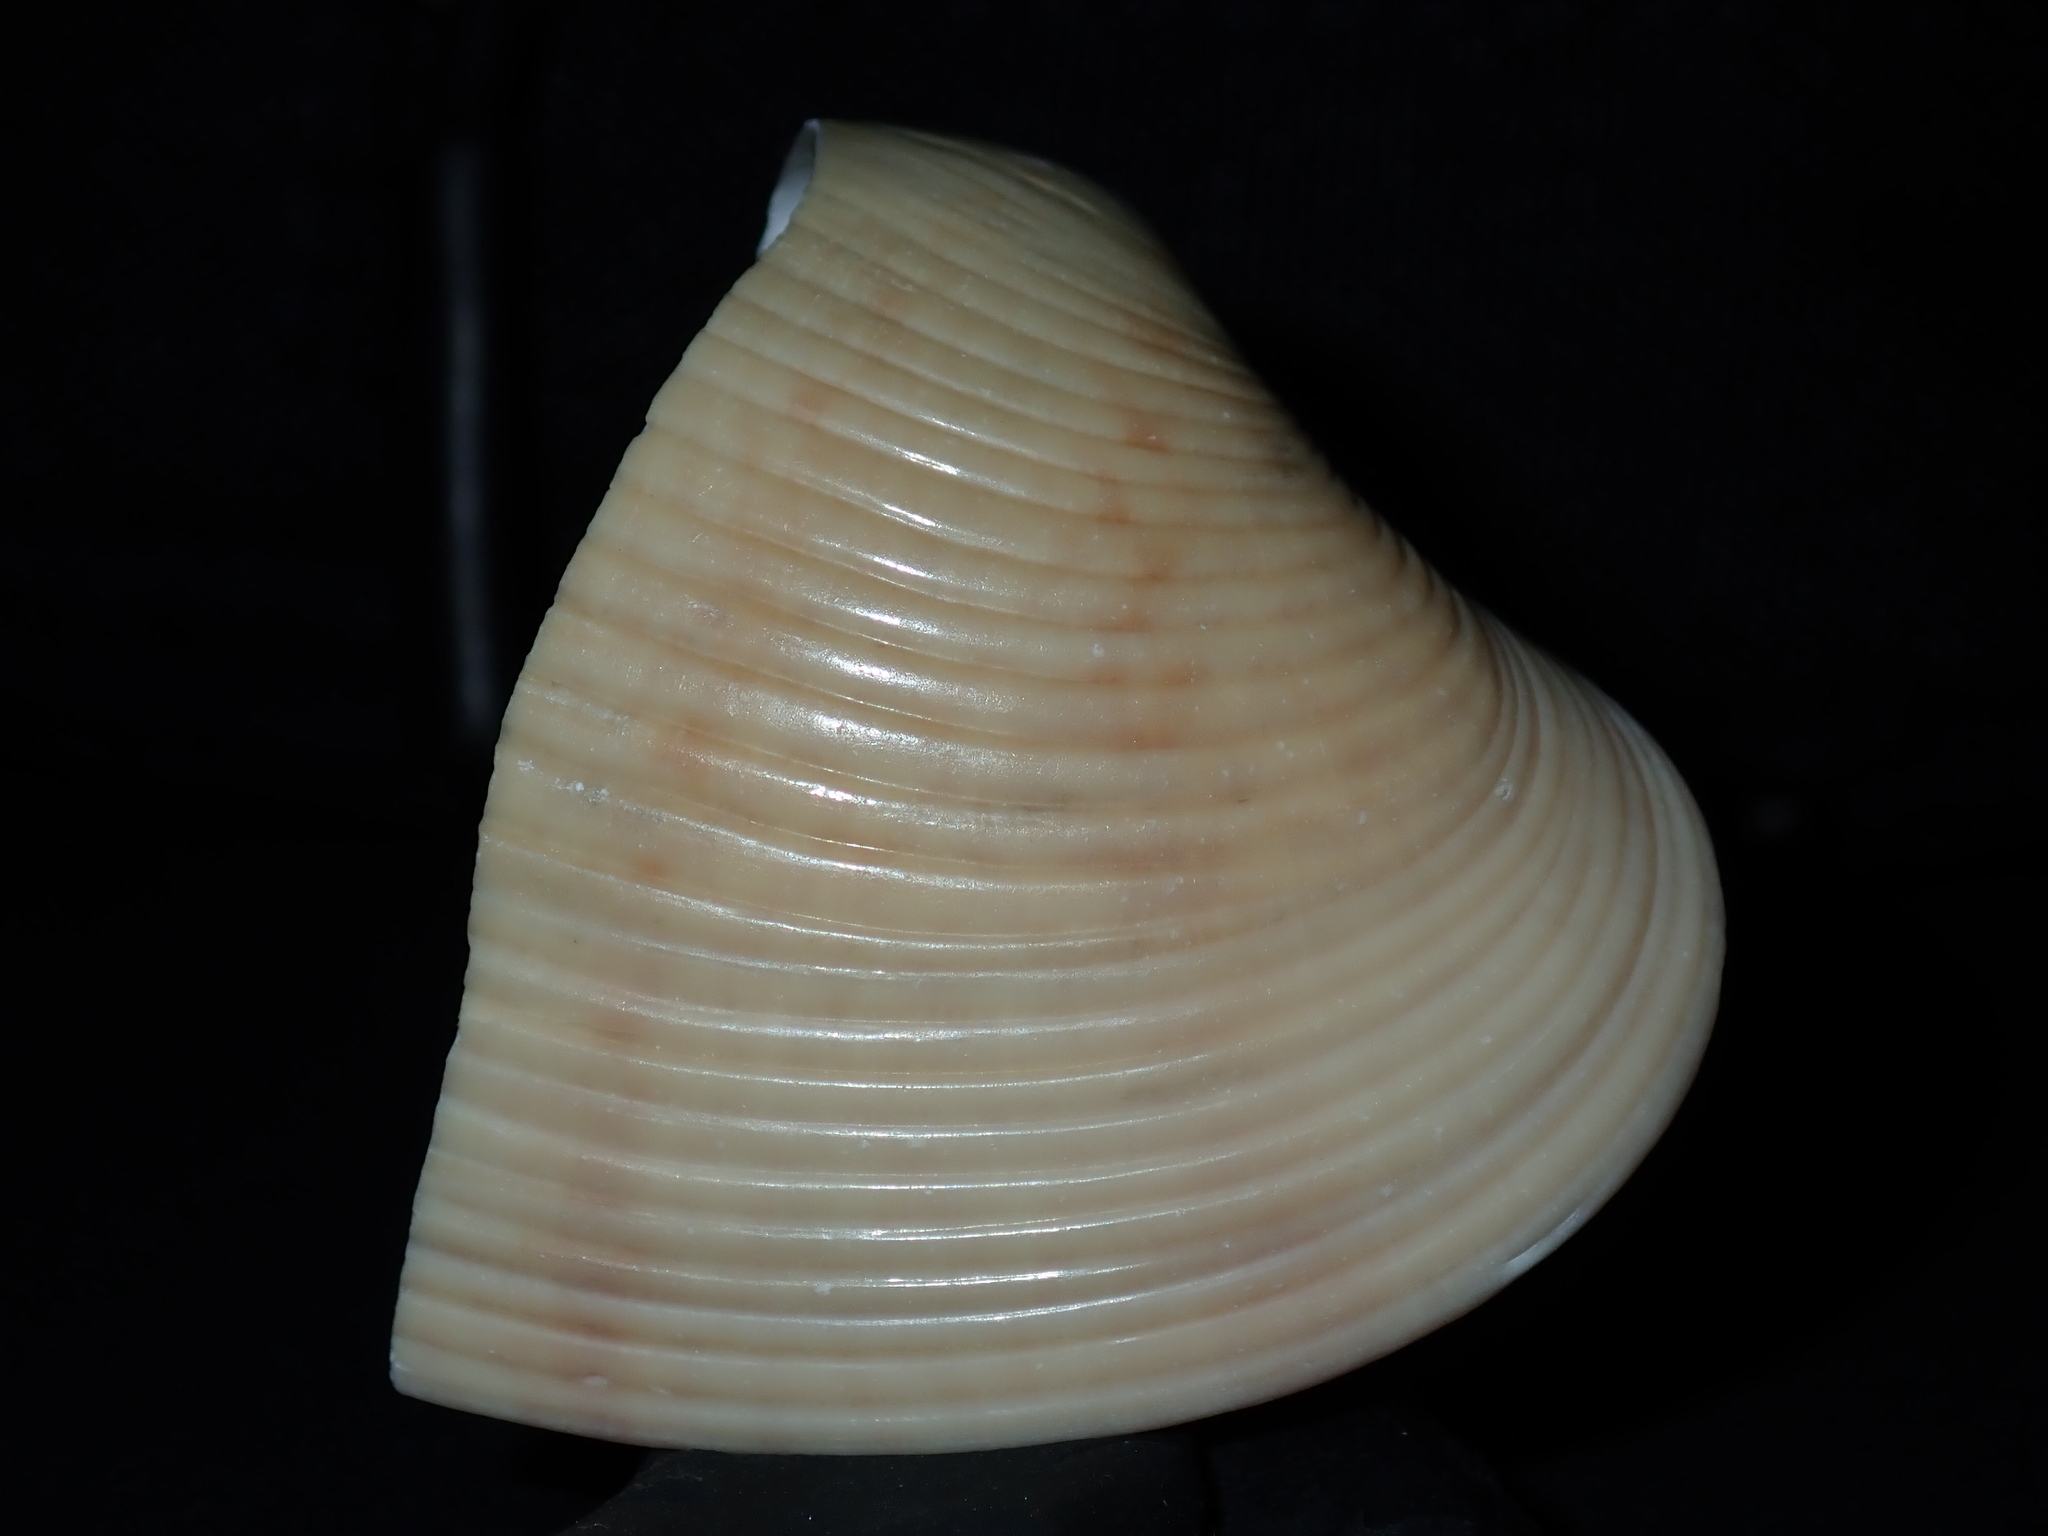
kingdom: Animalia
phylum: Mollusca
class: Bivalvia
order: Venerida
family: Veneridae
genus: Paphia
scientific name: Paphia inflata
